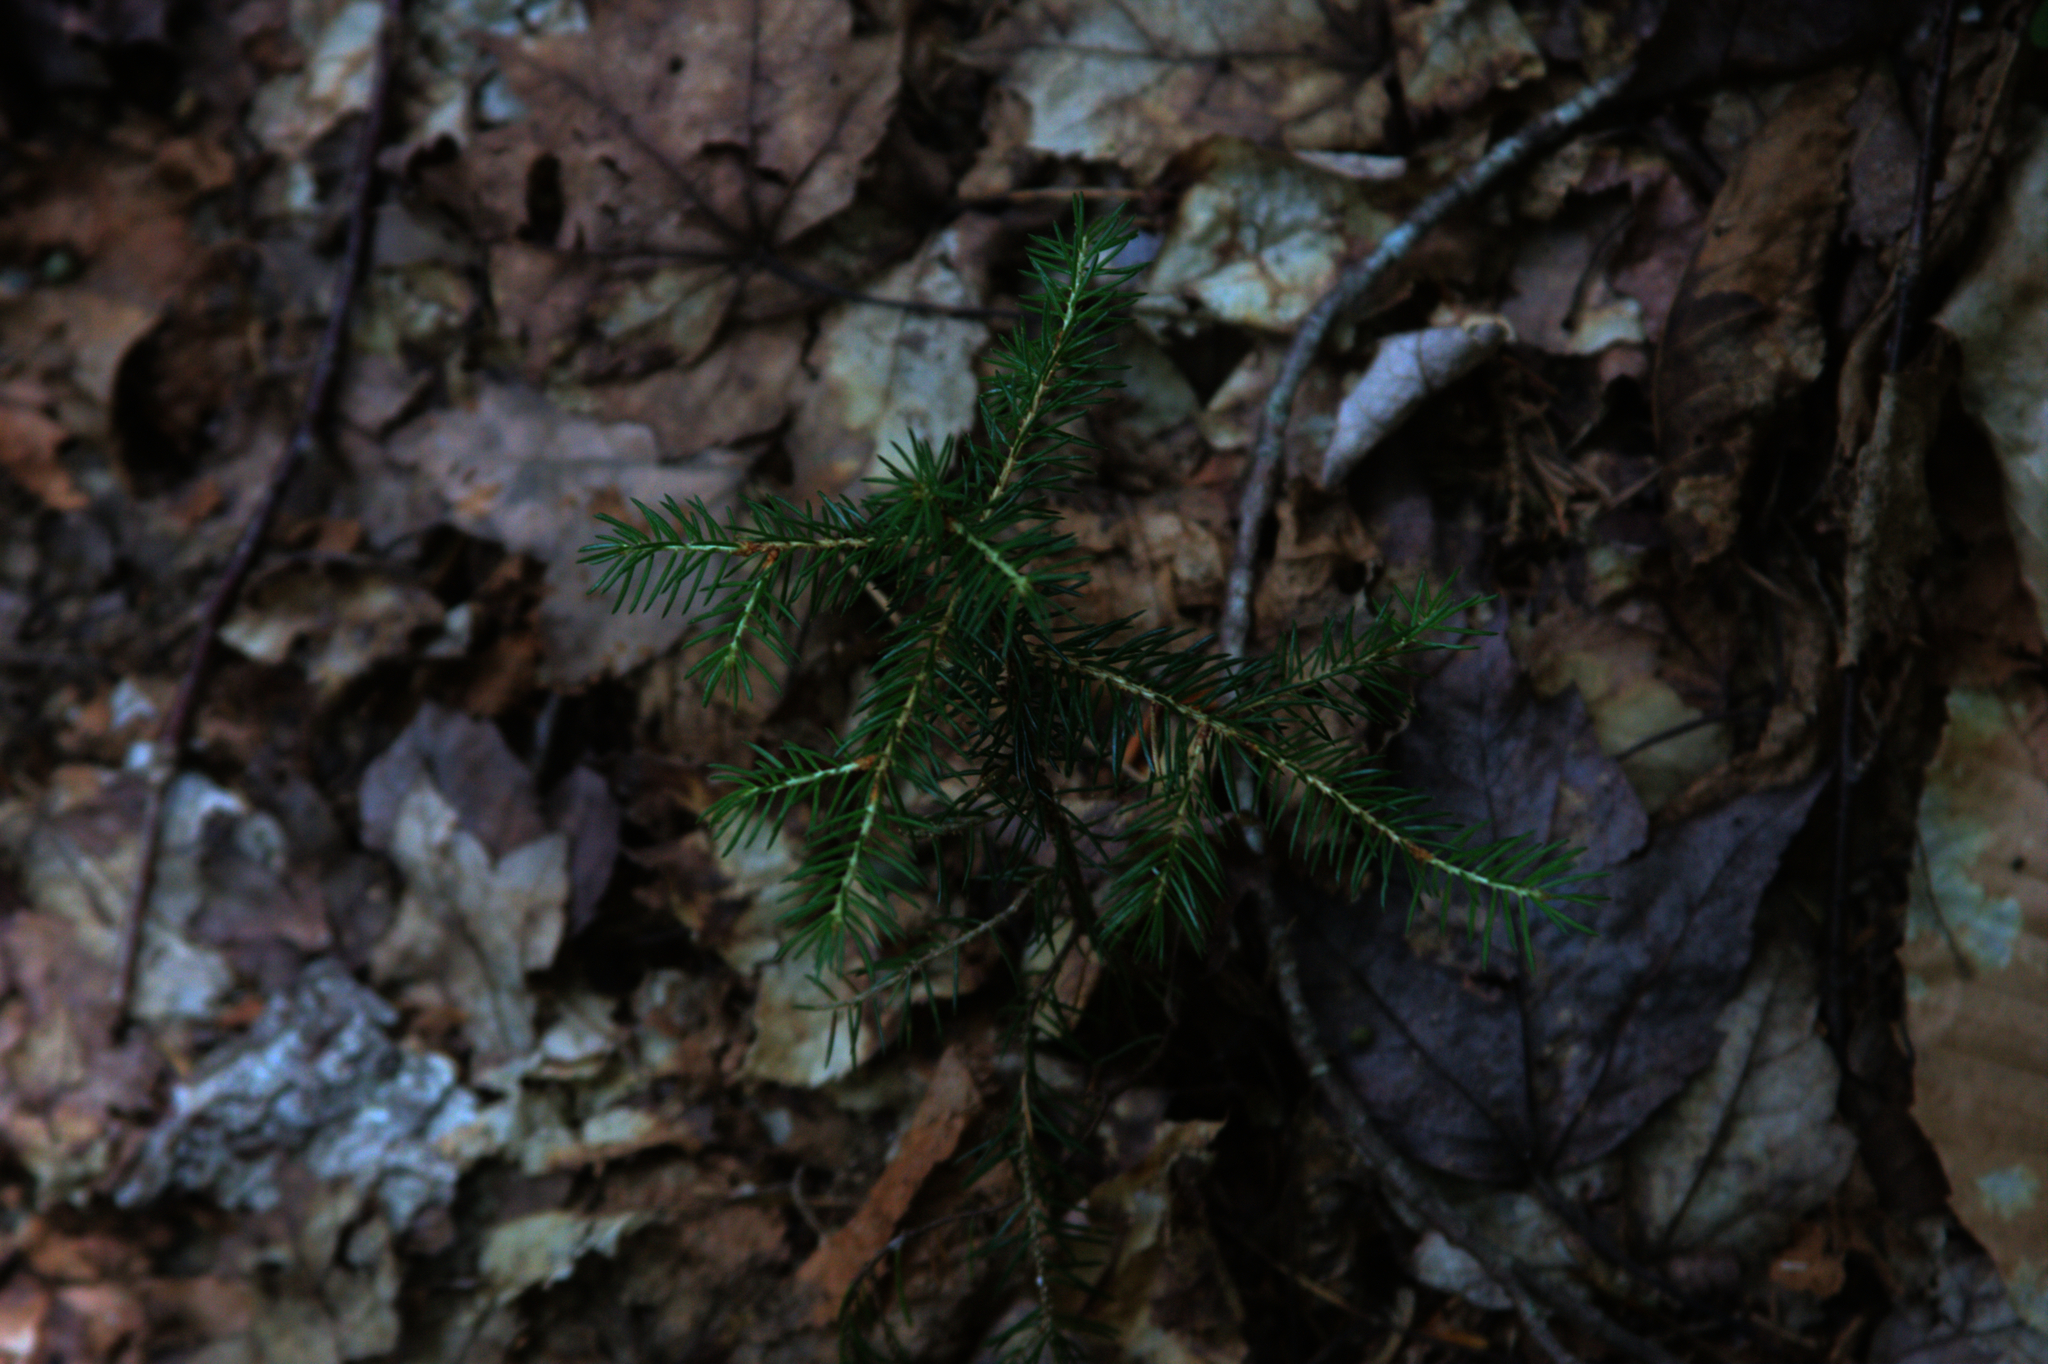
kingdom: Plantae
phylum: Tracheophyta
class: Pinopsida
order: Pinales
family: Pinaceae
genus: Picea
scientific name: Picea rubens
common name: Red spruce
